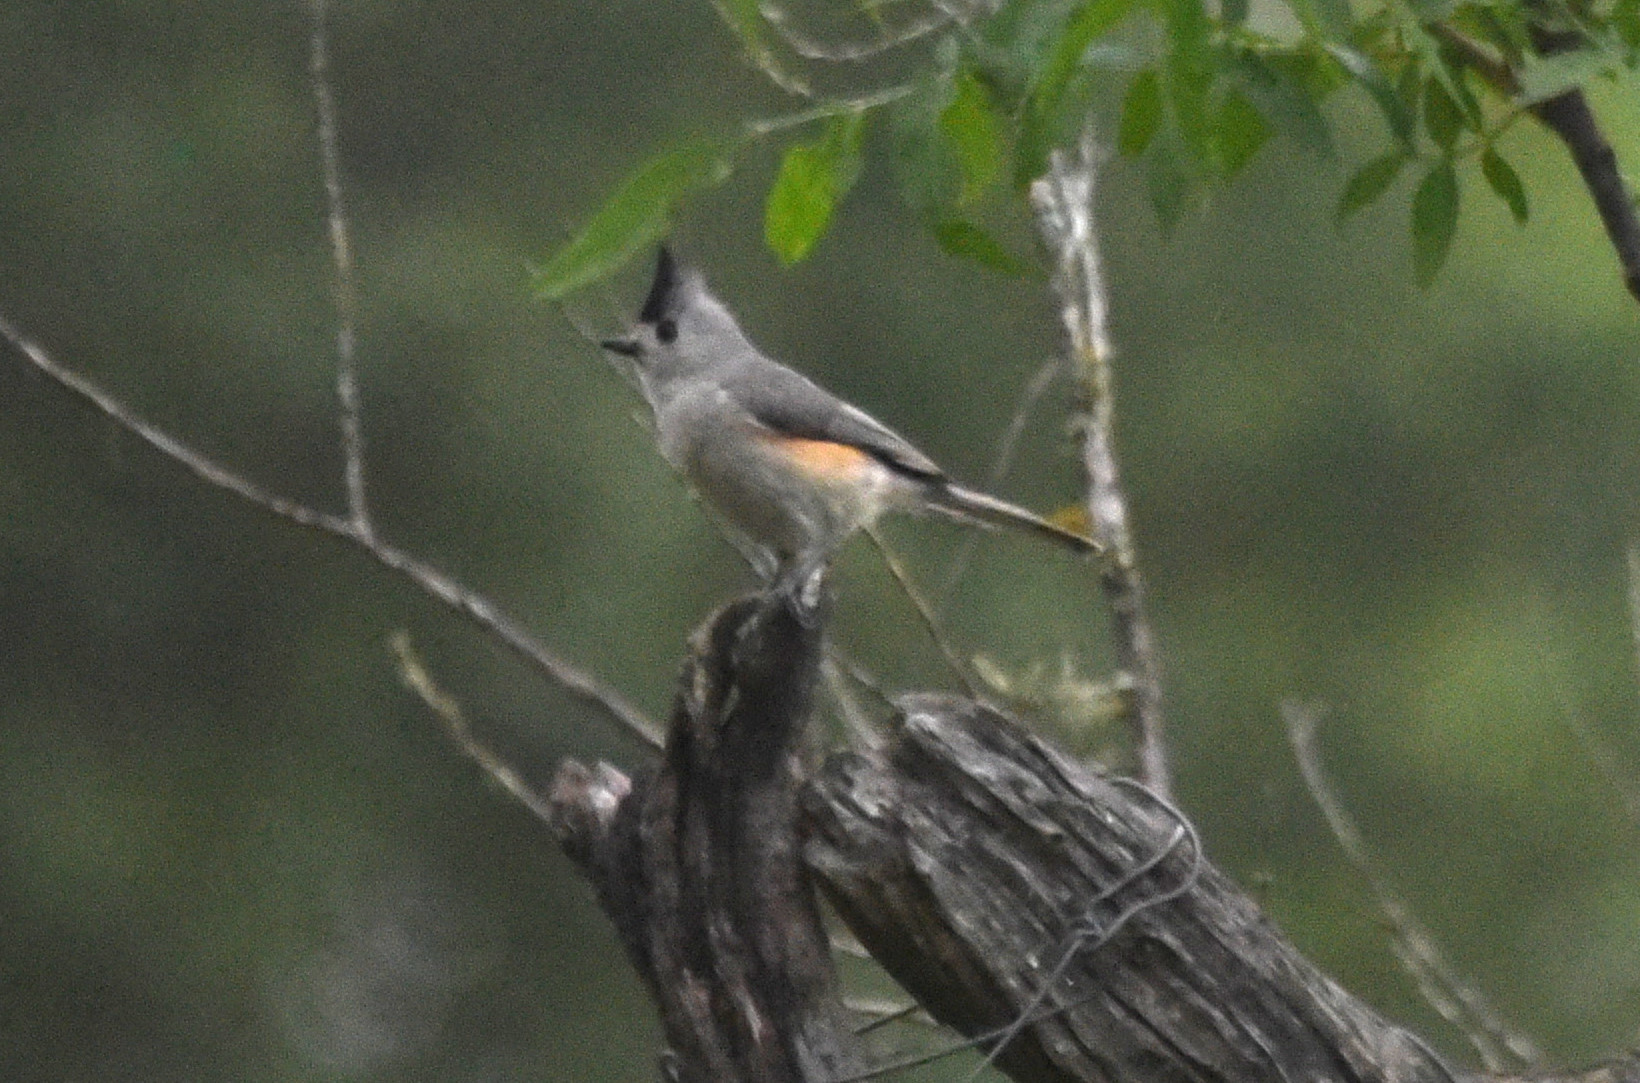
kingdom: Animalia
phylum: Chordata
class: Aves
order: Passeriformes
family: Paridae
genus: Baeolophus
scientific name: Baeolophus atricristatus
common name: Black-crested titmouse
